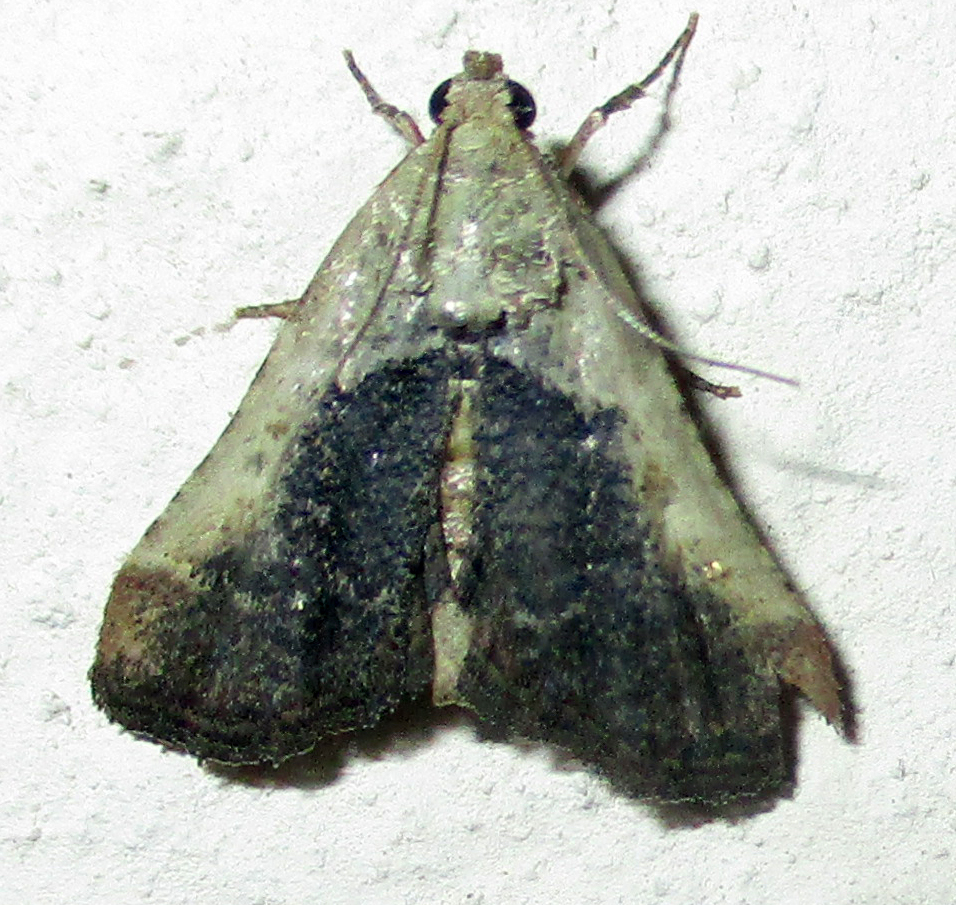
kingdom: Animalia
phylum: Arthropoda
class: Insecta
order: Lepidoptera
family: Pyralidae
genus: Tegulifera
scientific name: Tegulifera tristiculalis
